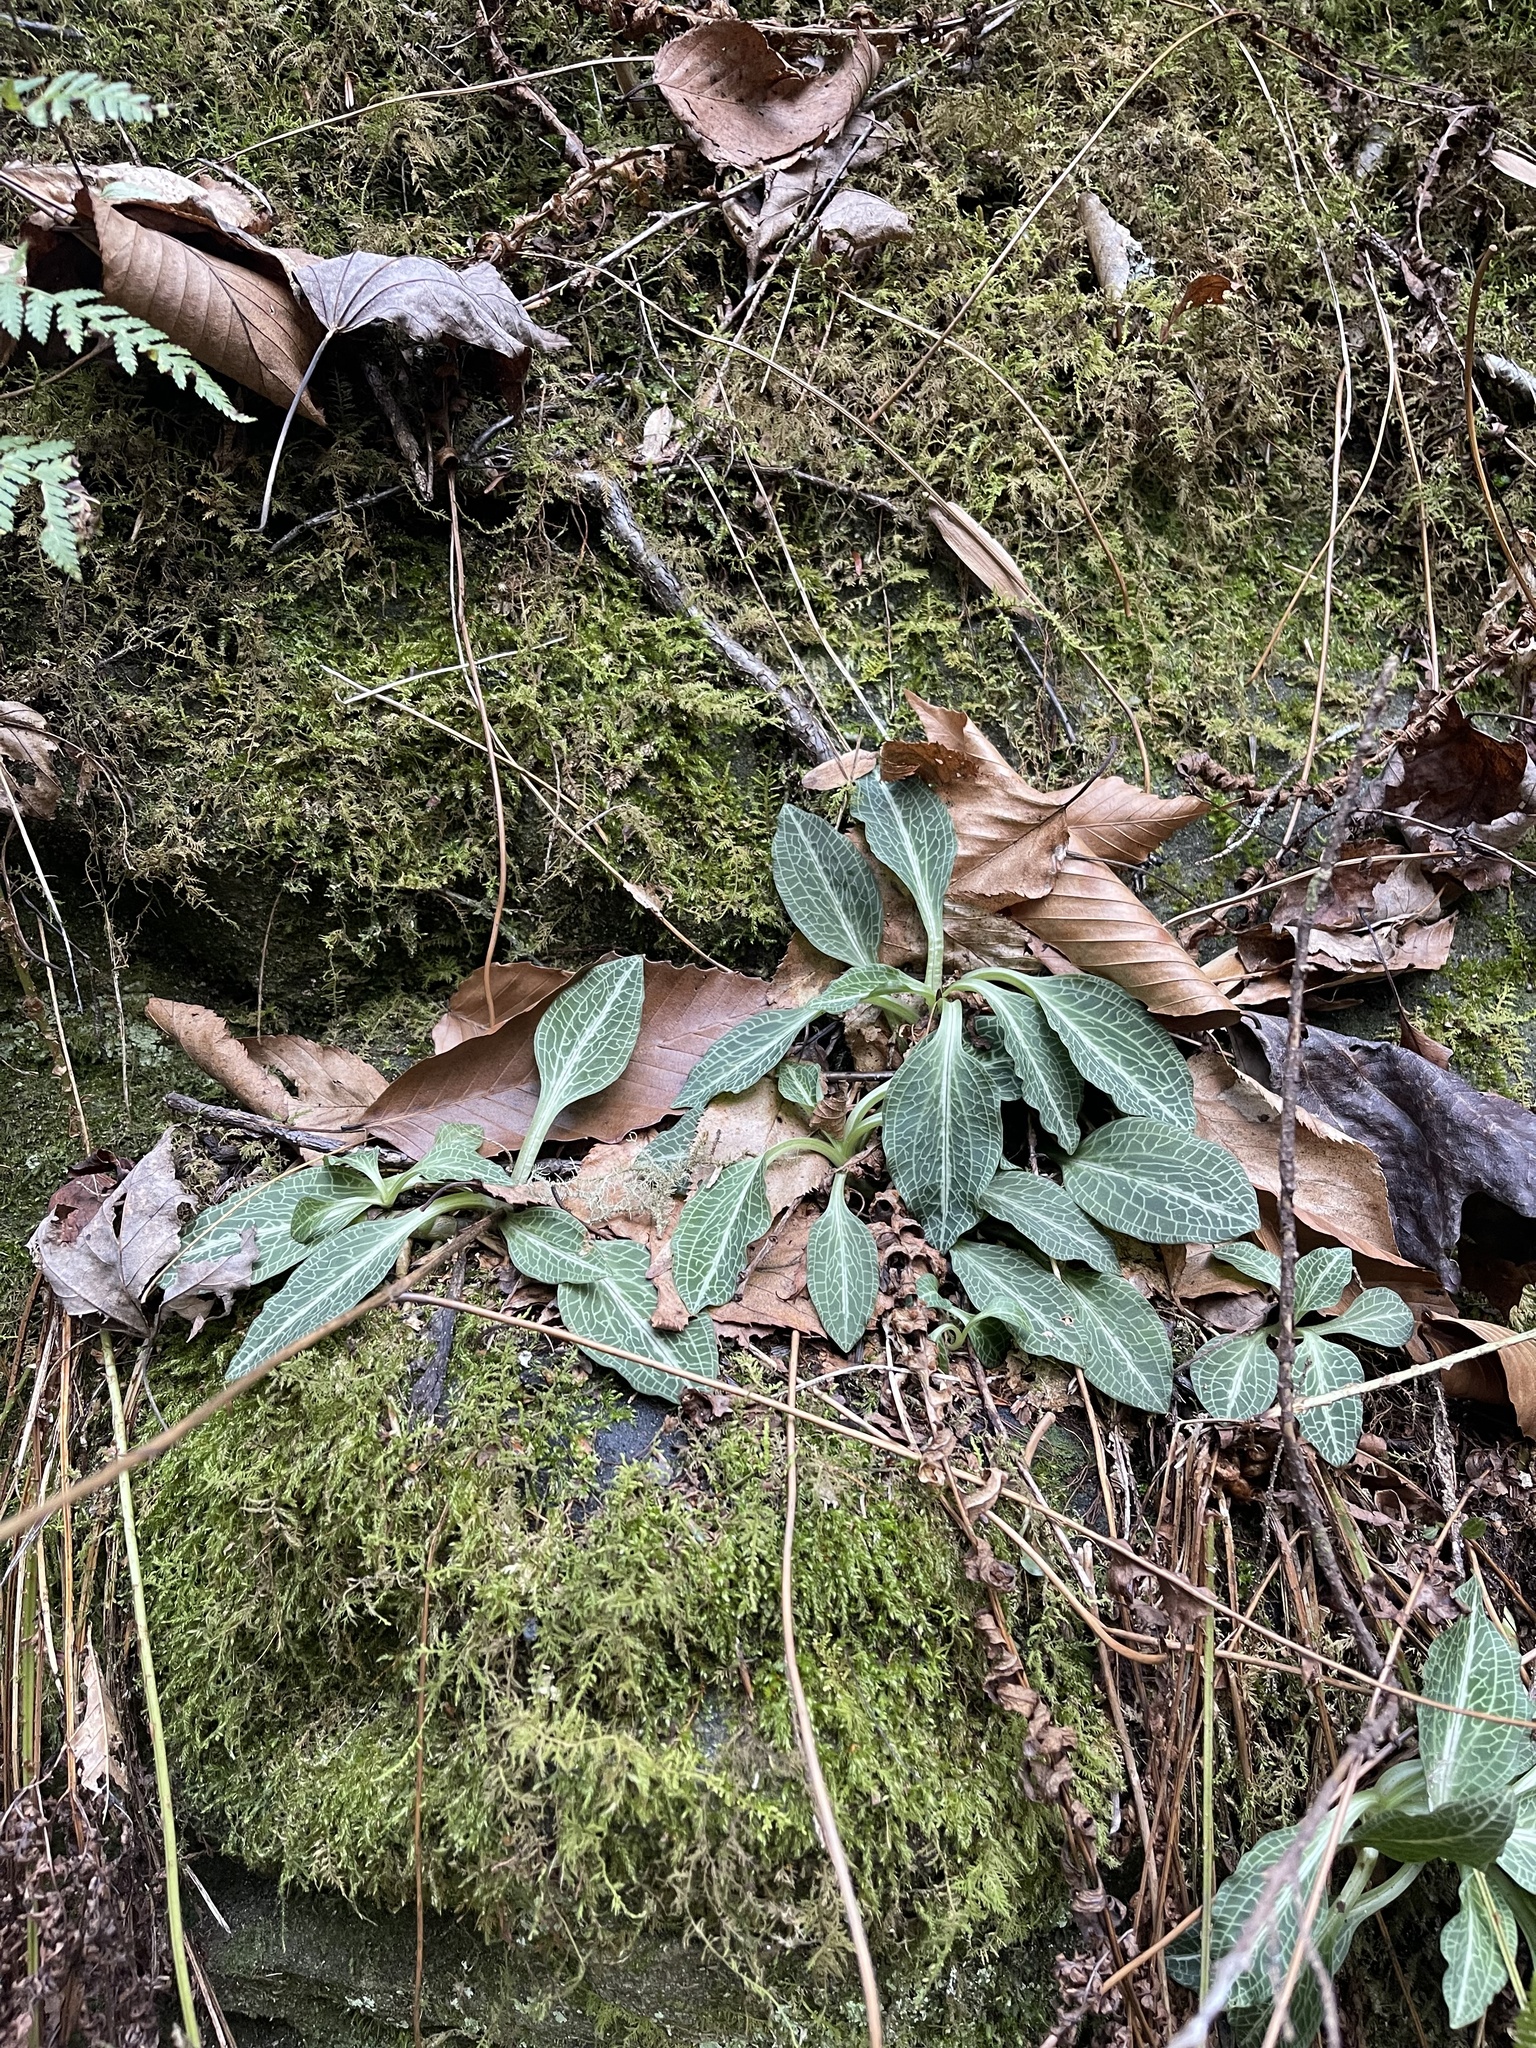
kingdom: Plantae
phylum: Tracheophyta
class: Liliopsida
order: Asparagales
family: Orchidaceae
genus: Goodyera
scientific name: Goodyera pubescens
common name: Downy rattlesnake-plantain
